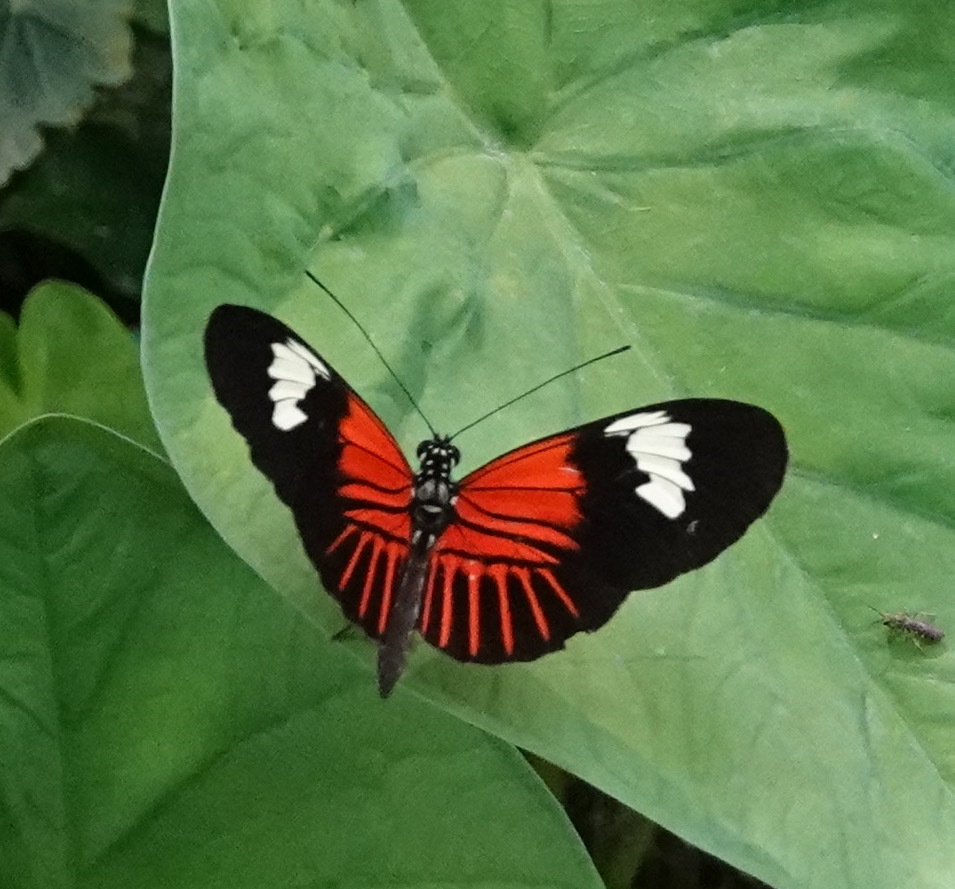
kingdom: Animalia
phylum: Arthropoda
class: Insecta
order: Lepidoptera
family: Nymphalidae
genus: Heliconius
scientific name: Heliconius melpomene
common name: Postman
